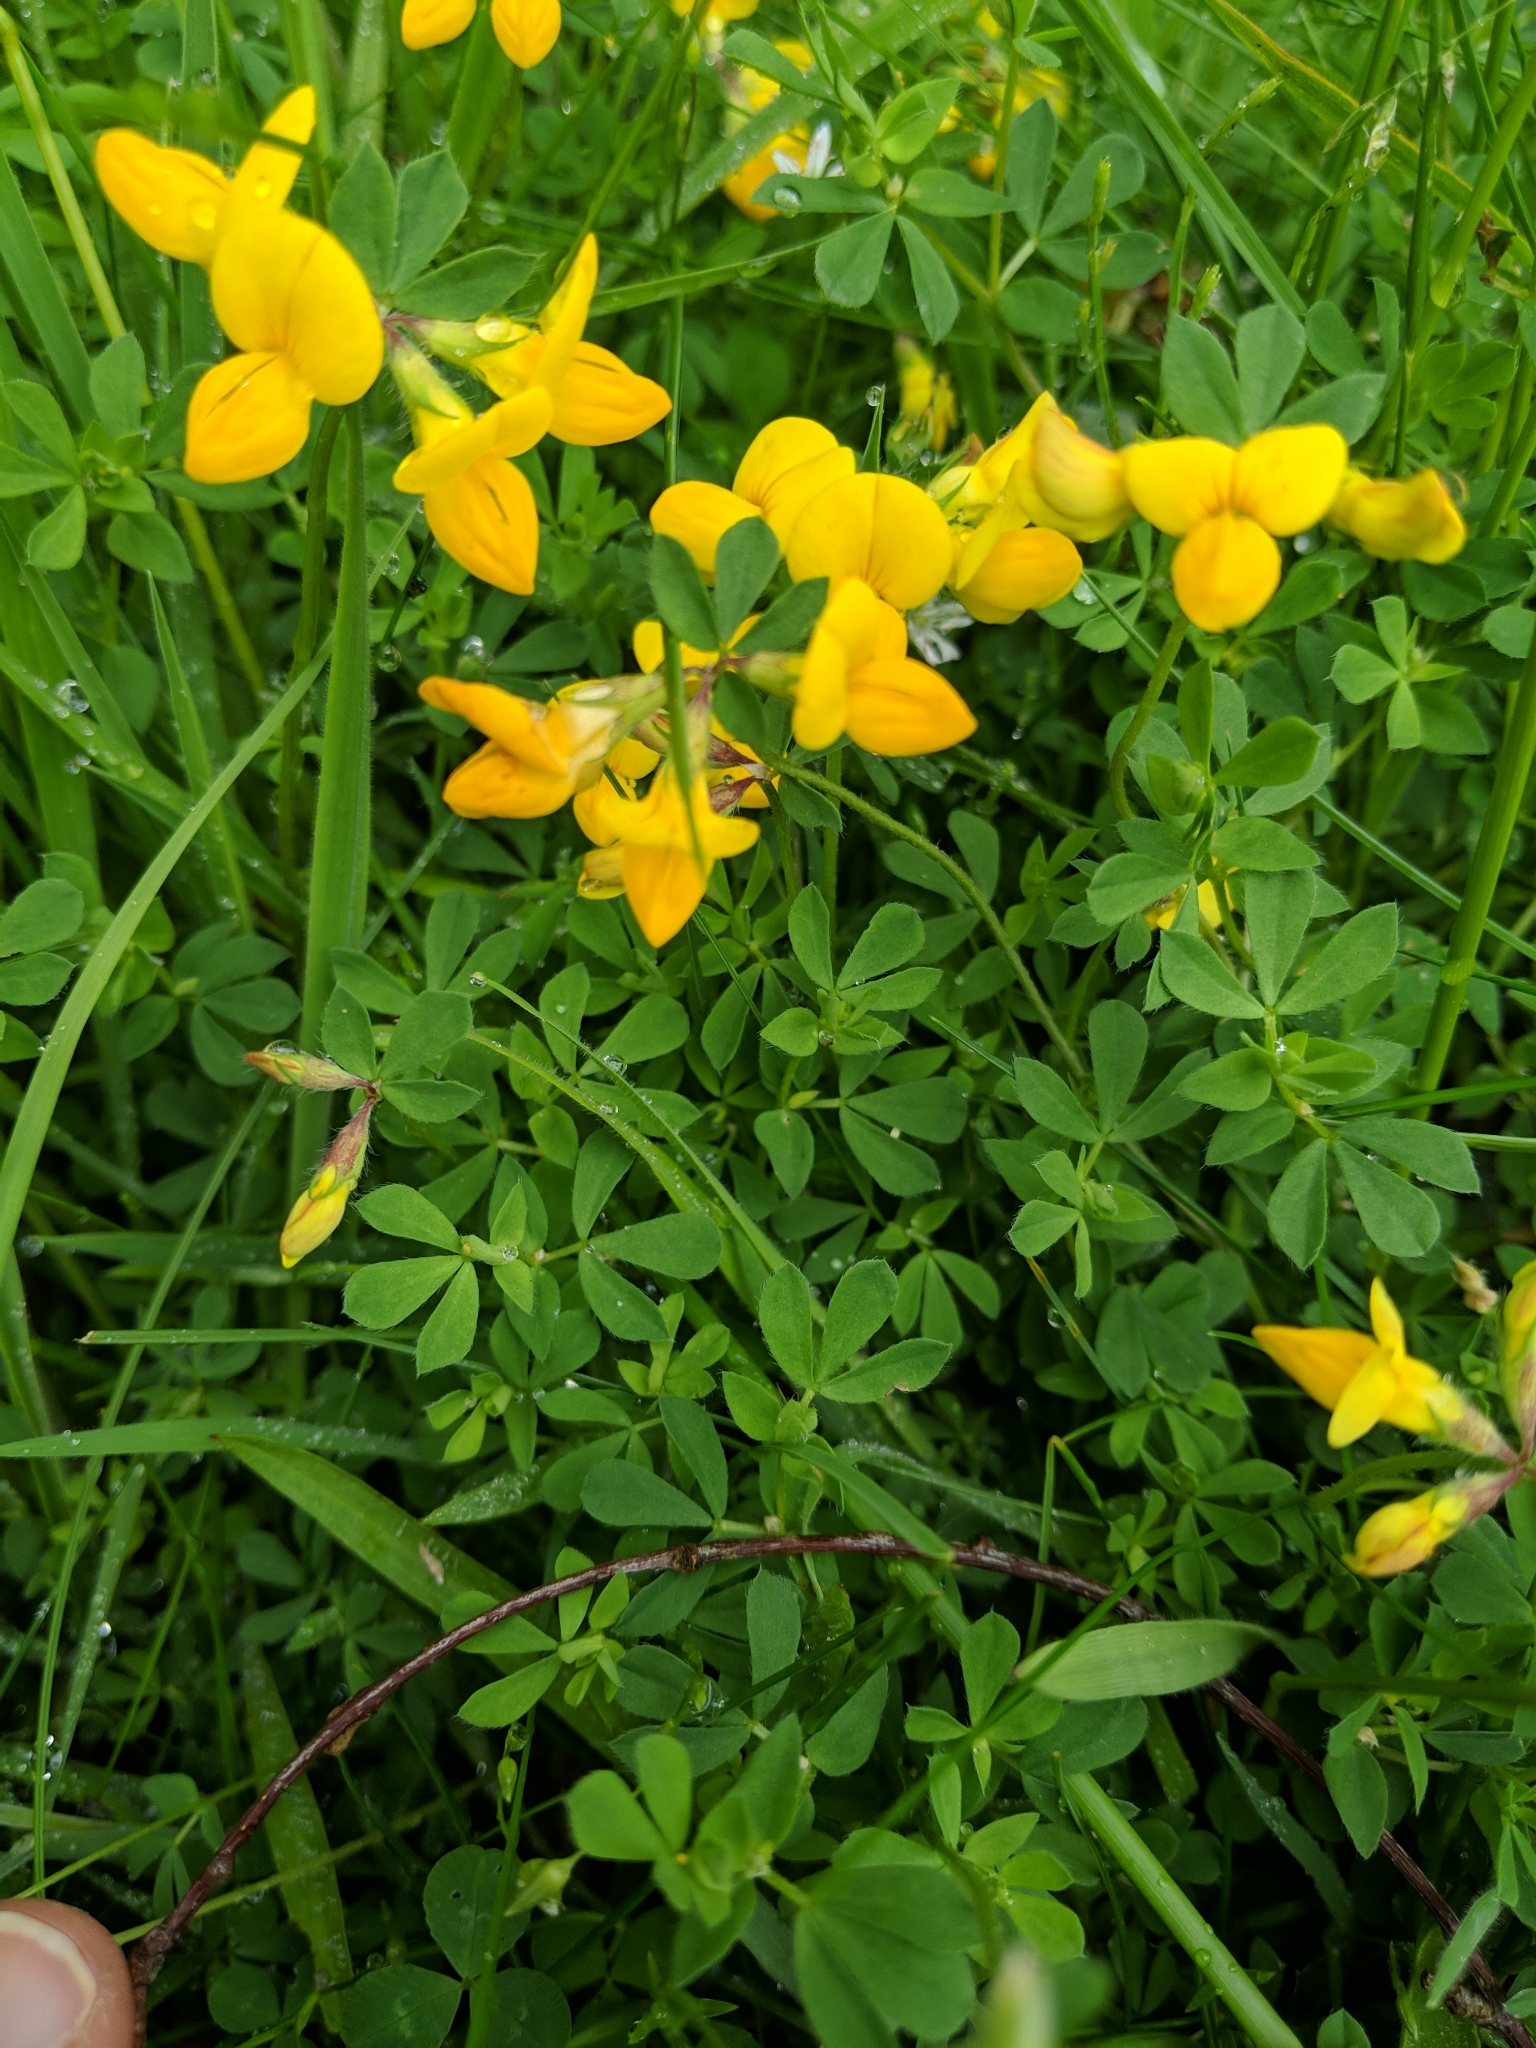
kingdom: Plantae
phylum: Tracheophyta
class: Magnoliopsida
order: Fabales
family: Fabaceae
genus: Lotus
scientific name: Lotus corniculatus
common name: Common bird's-foot-trefoil
